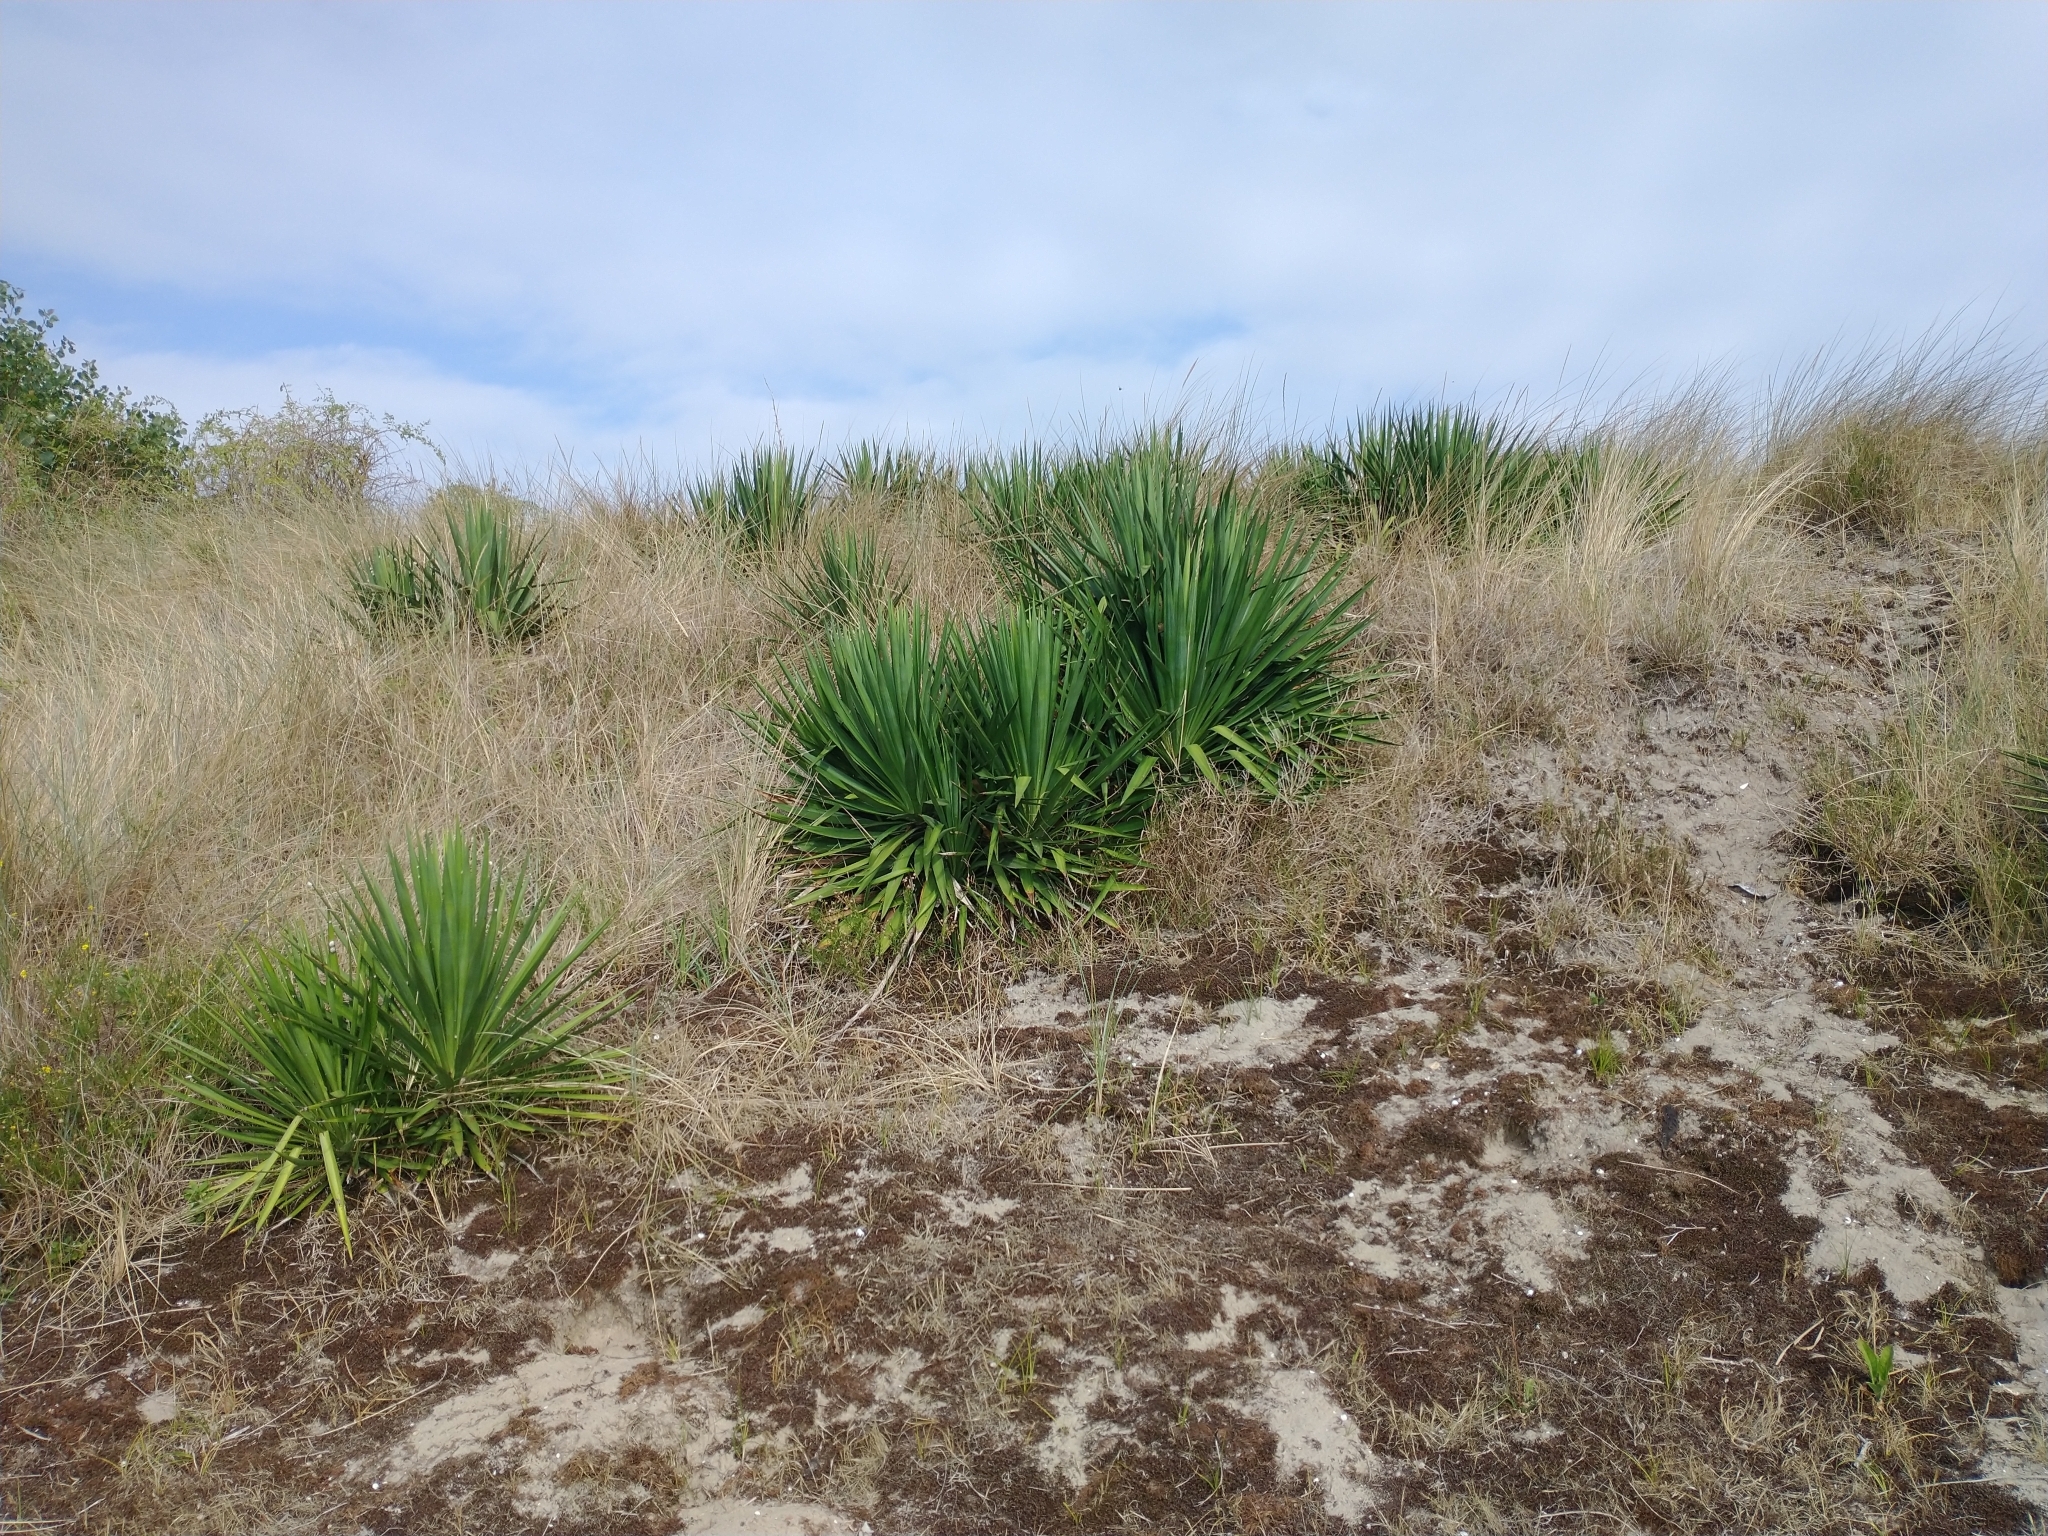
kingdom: Plantae
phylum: Tracheophyta
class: Liliopsida
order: Asparagales
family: Asparagaceae
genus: Yucca
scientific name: Yucca gloriosa
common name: Spanish-dagger
